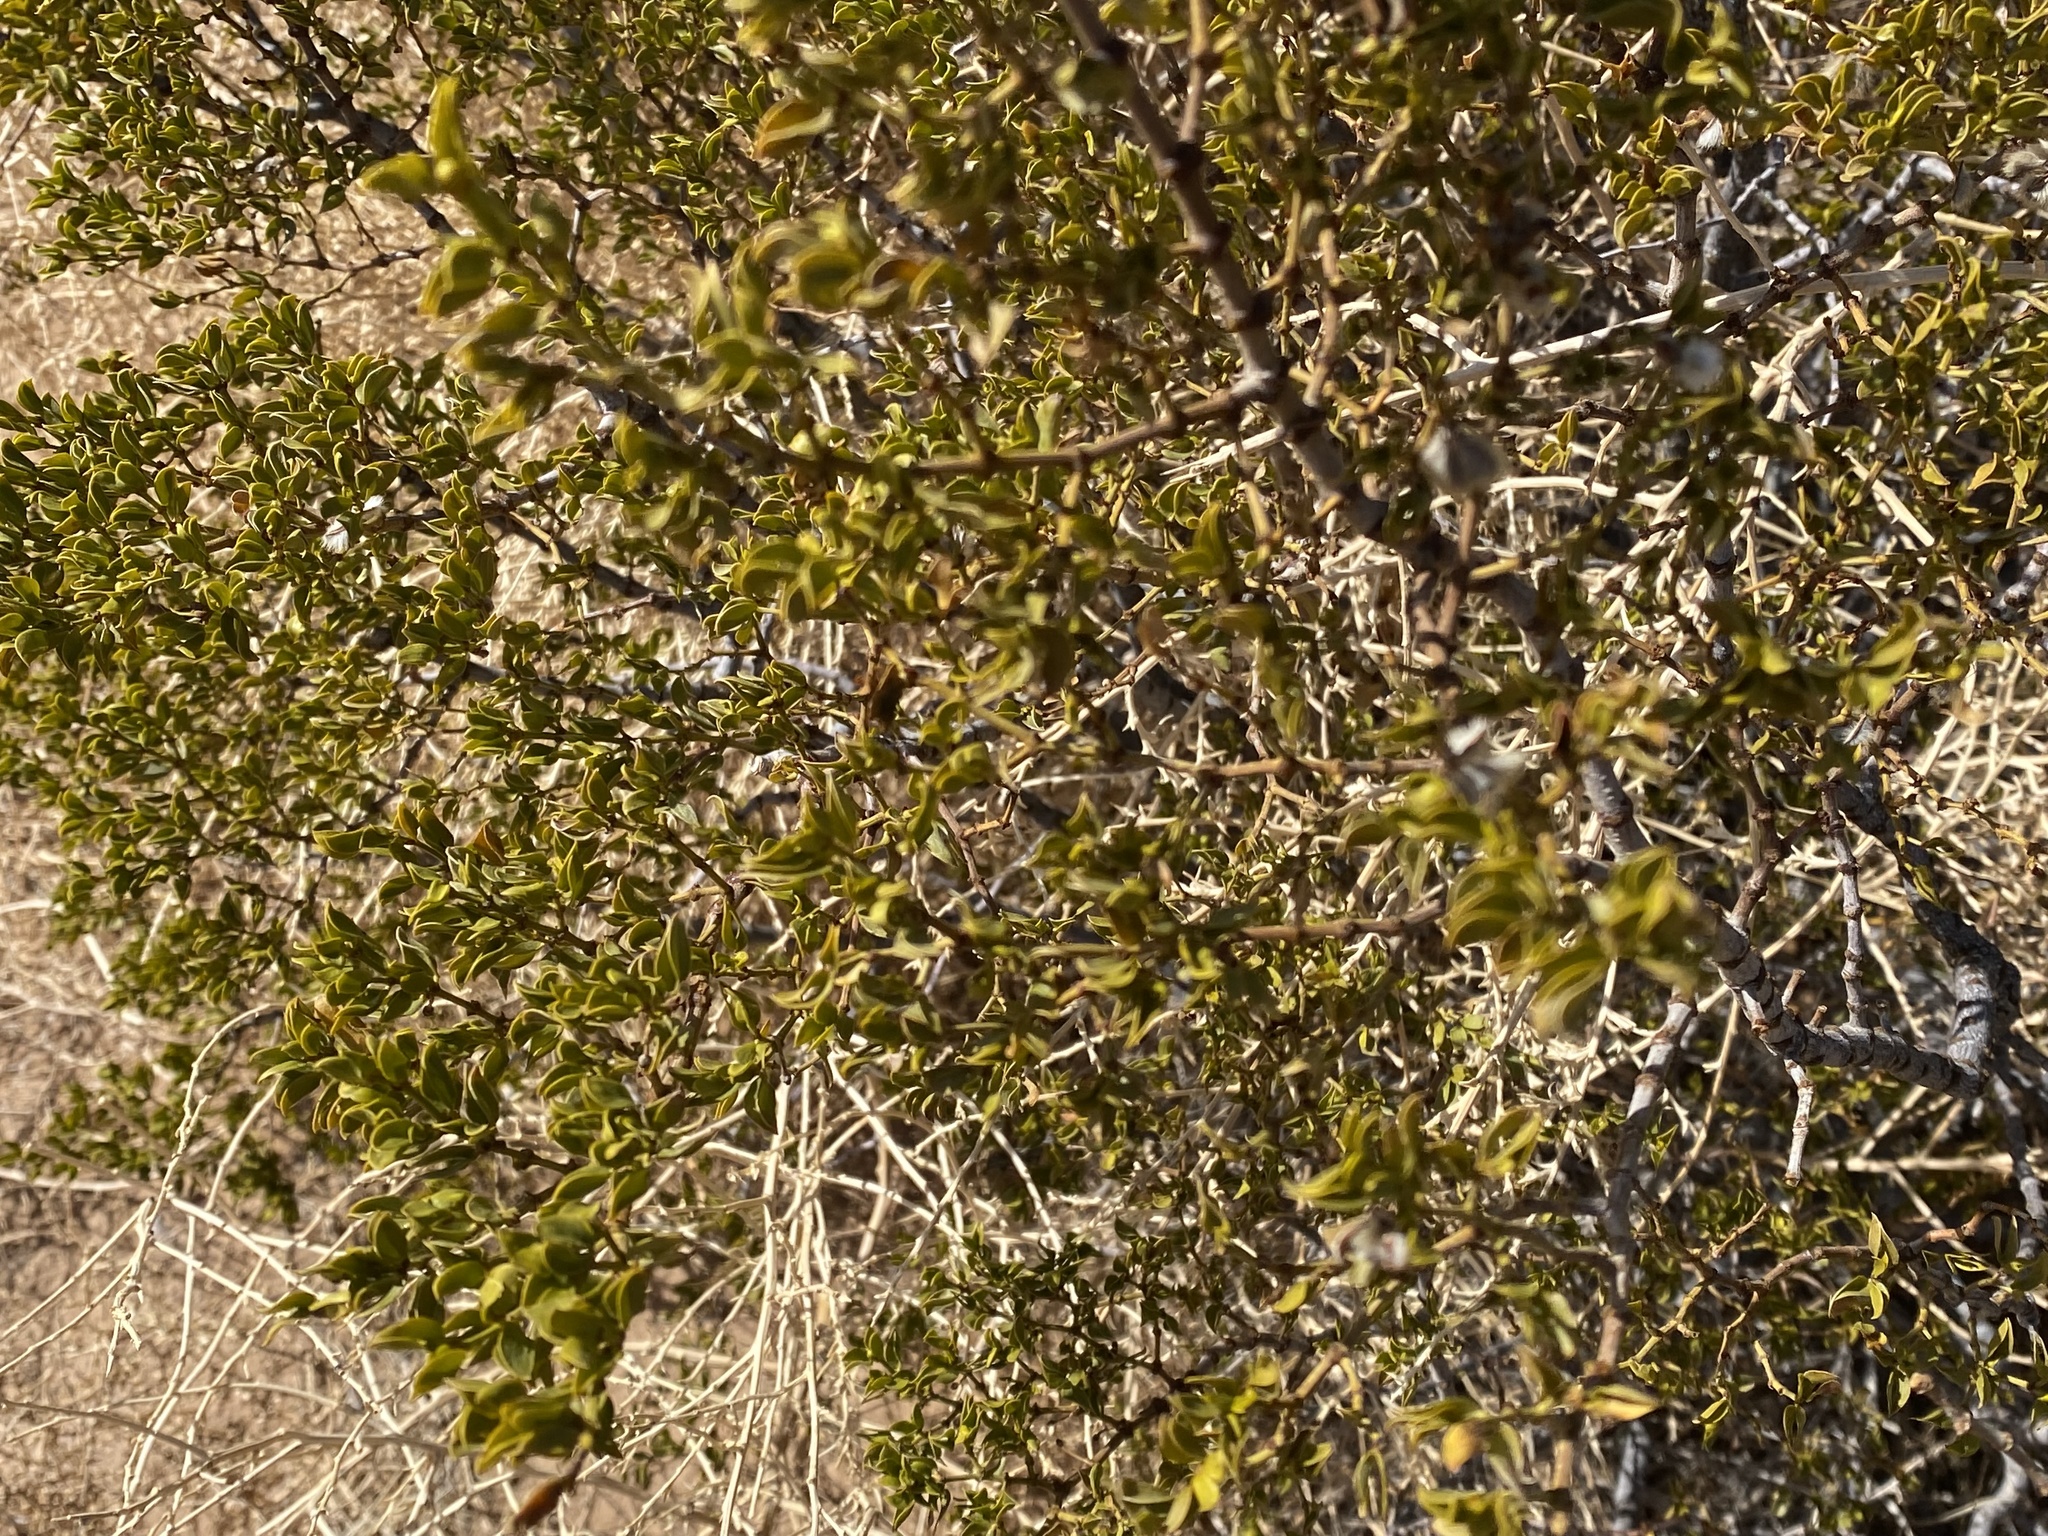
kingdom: Plantae
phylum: Tracheophyta
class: Magnoliopsida
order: Zygophyllales
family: Zygophyllaceae
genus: Larrea
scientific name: Larrea tridentata
